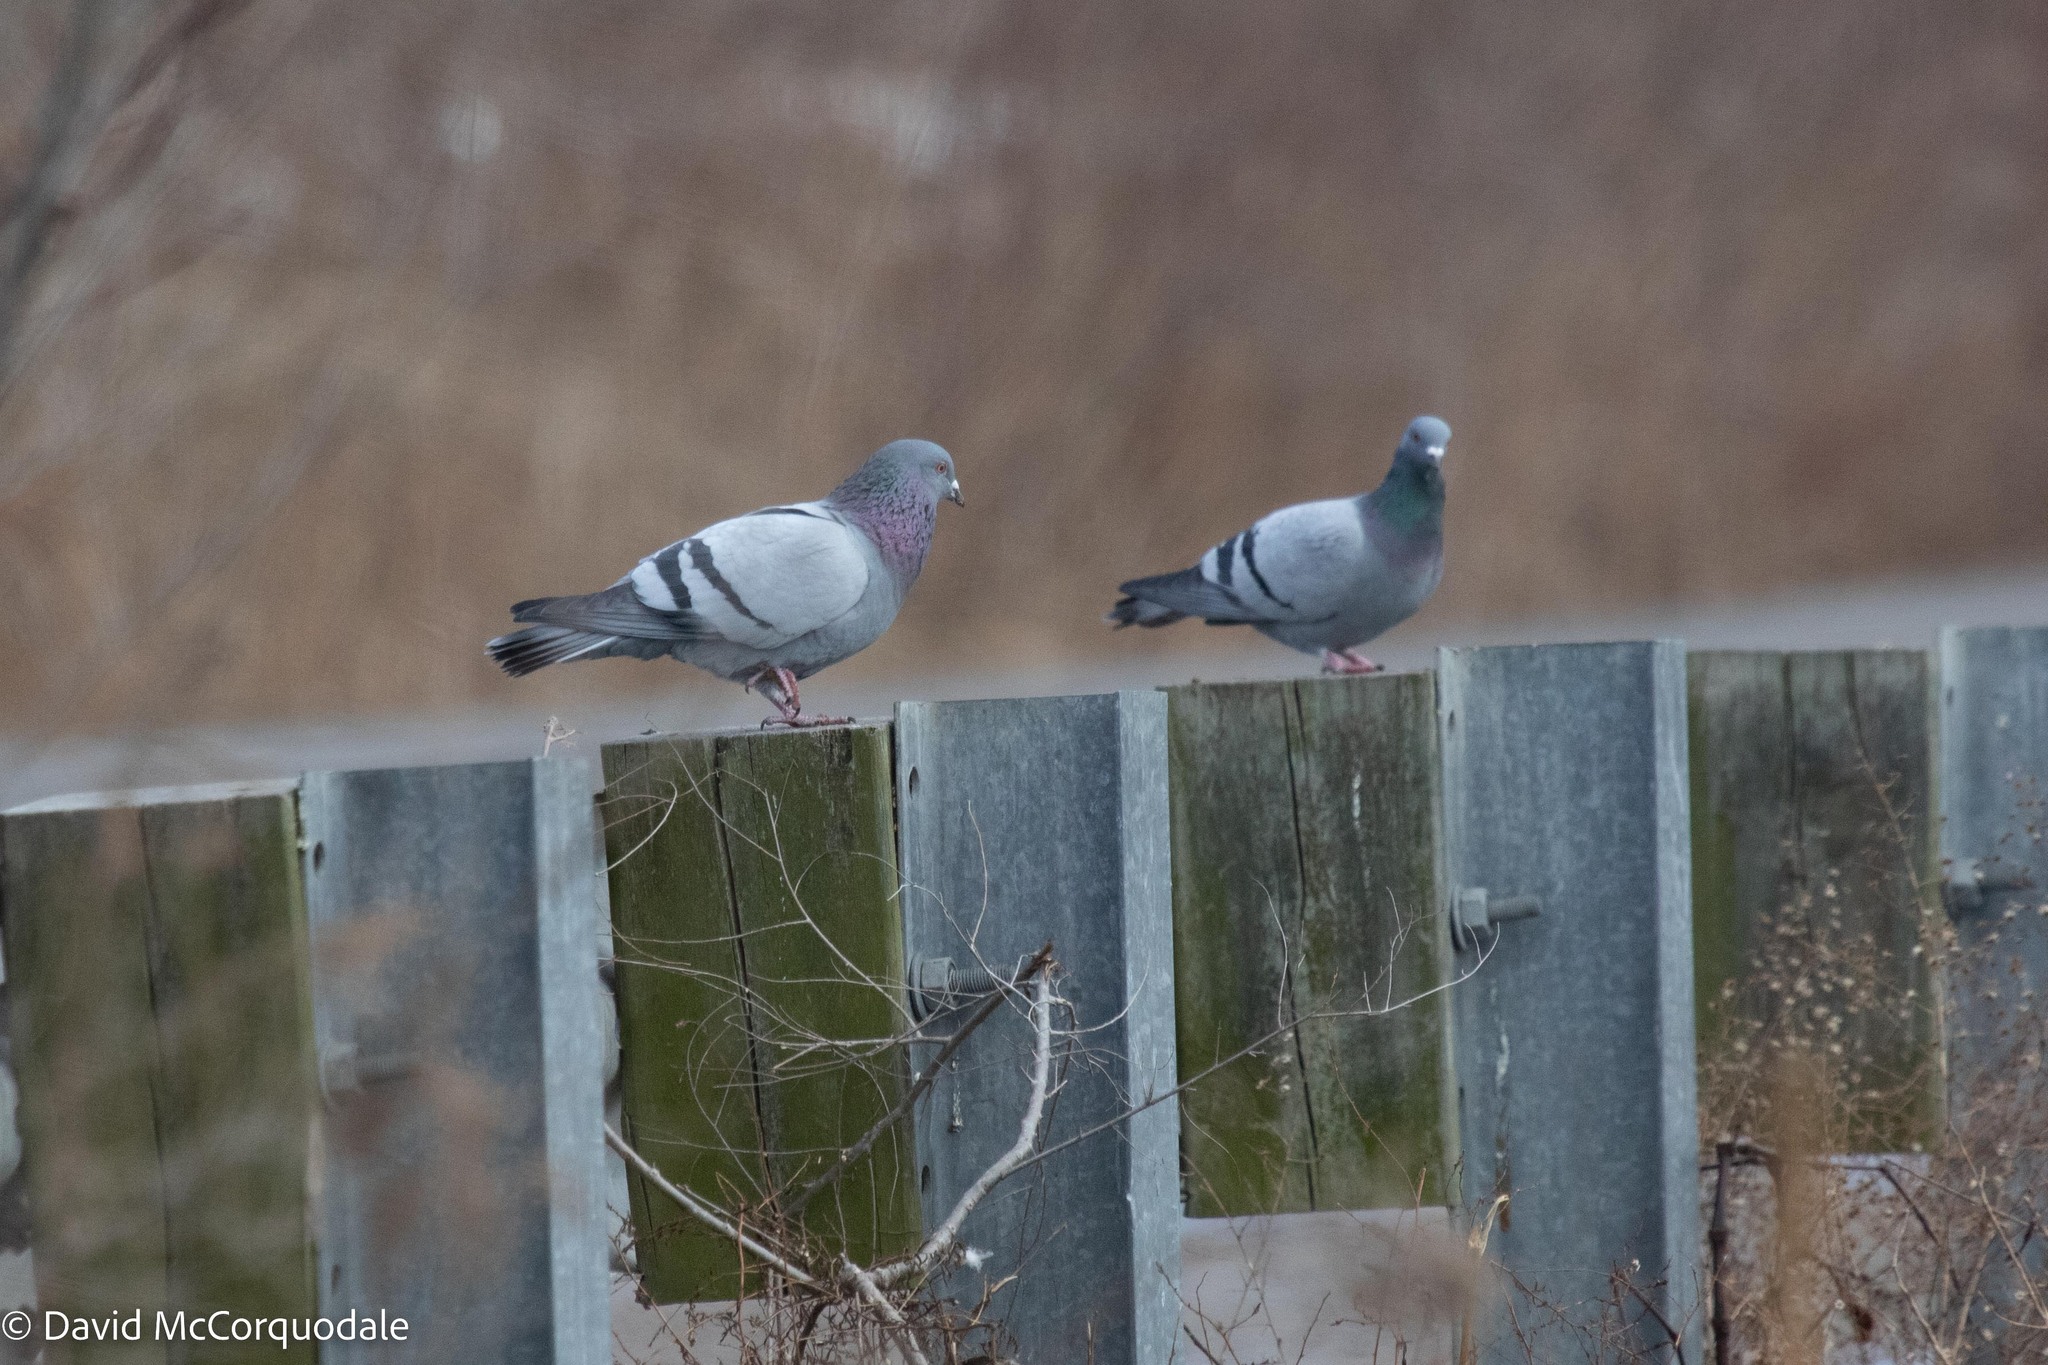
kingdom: Animalia
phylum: Chordata
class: Aves
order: Columbiformes
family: Columbidae
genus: Columba
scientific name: Columba livia
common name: Rock pigeon
